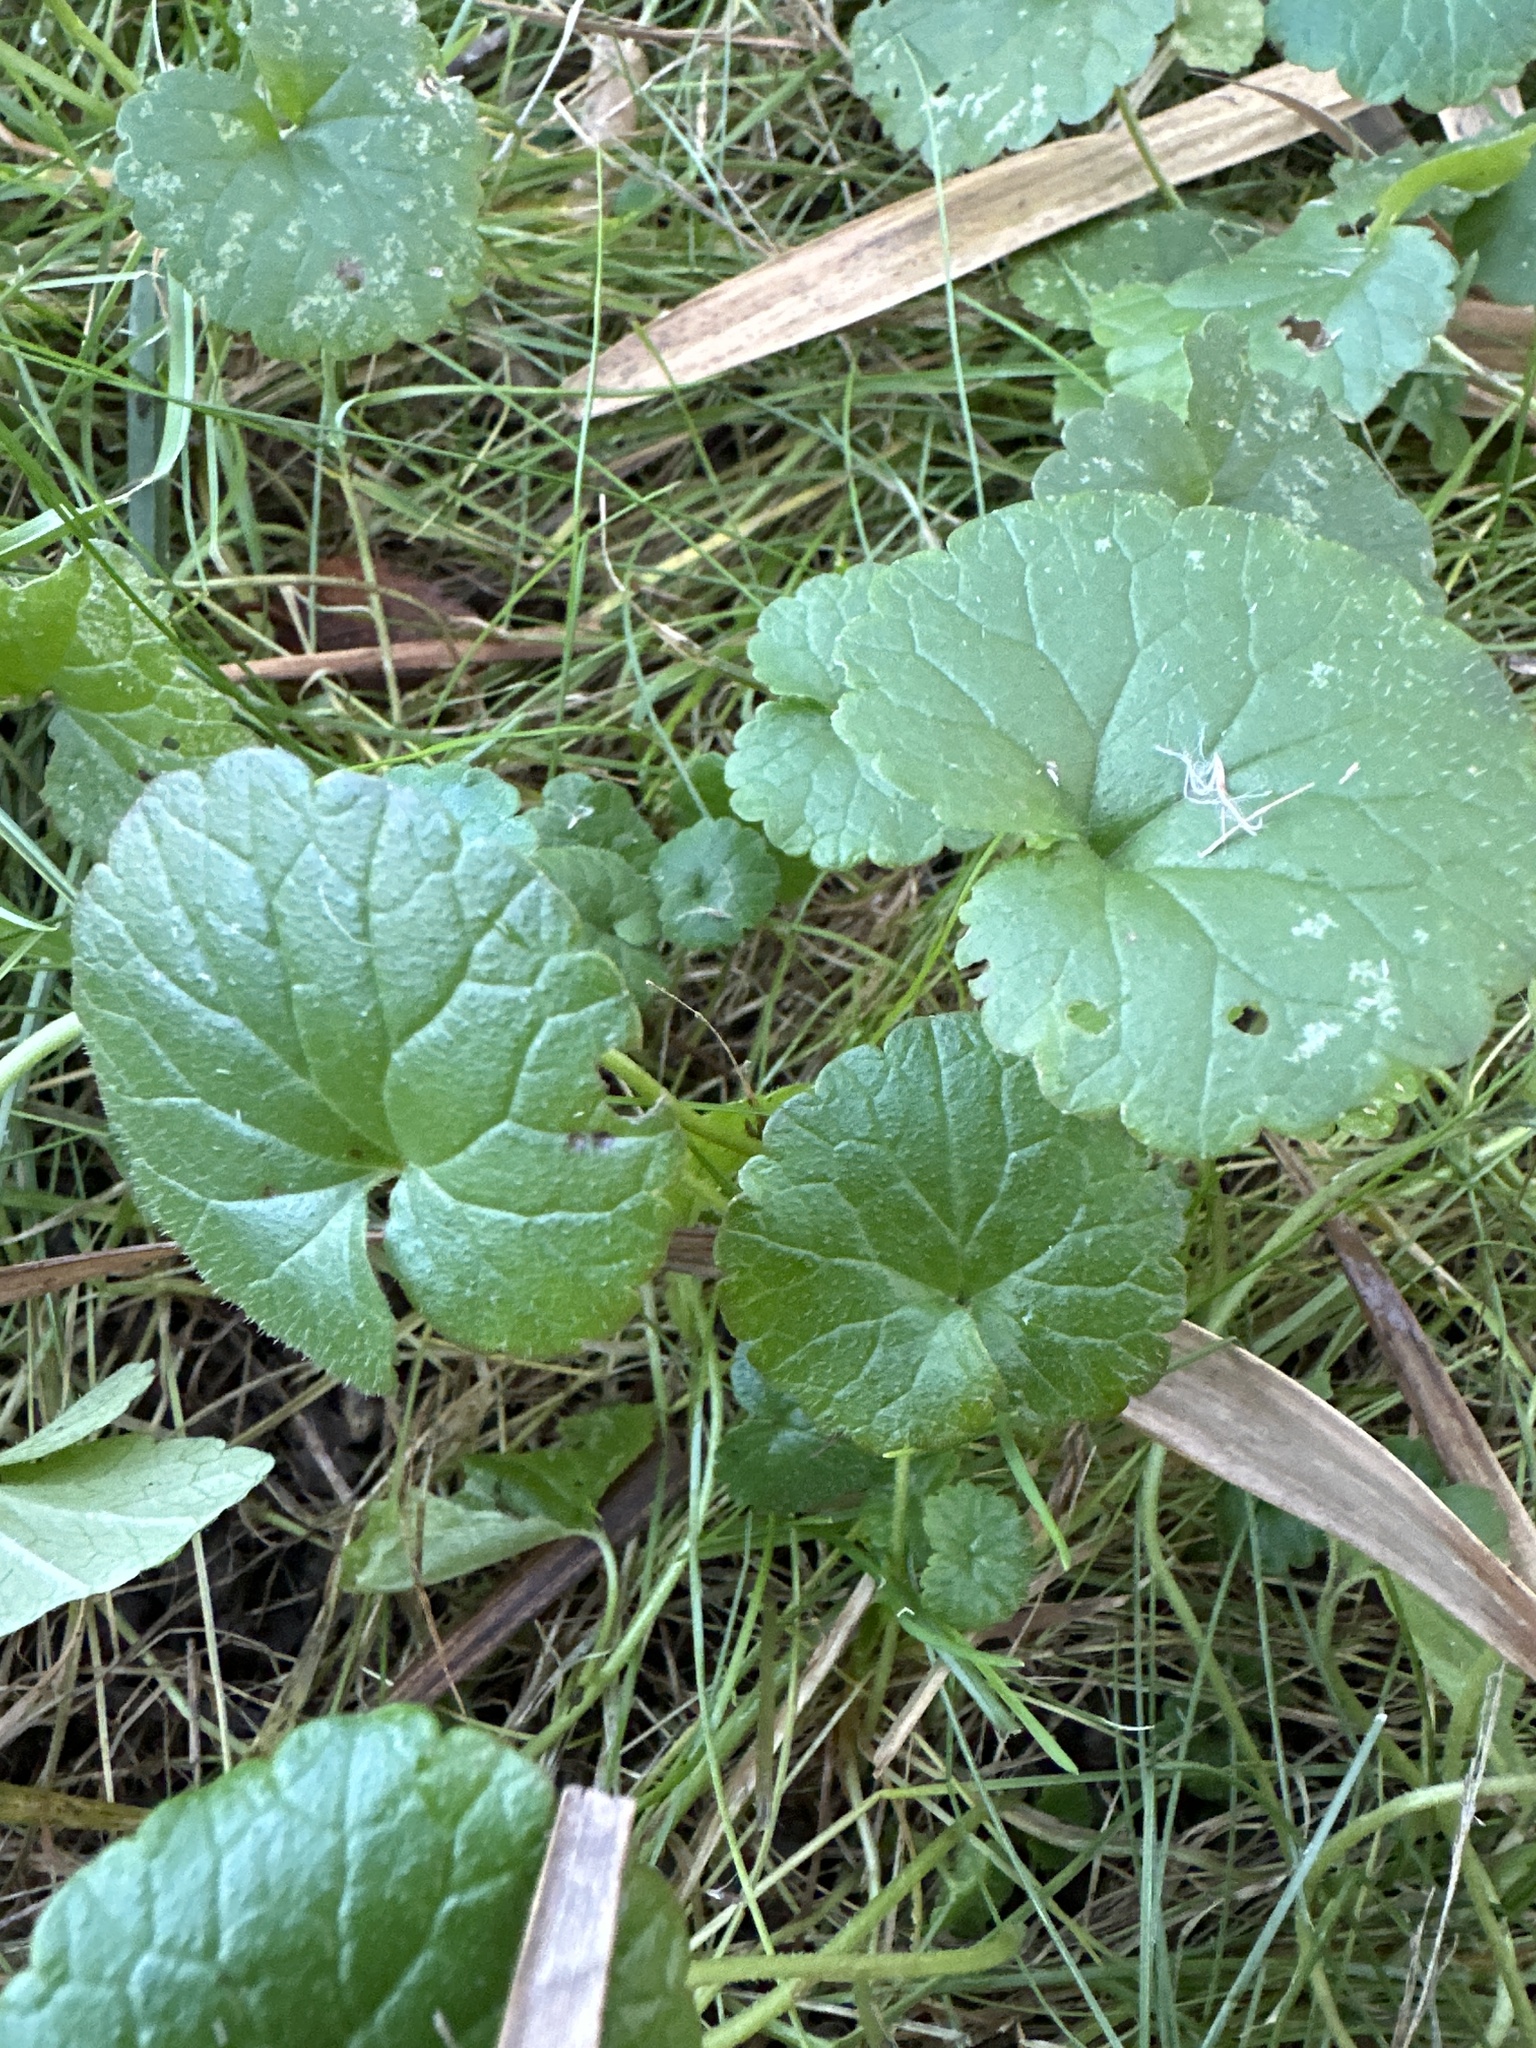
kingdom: Plantae
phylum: Tracheophyta
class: Magnoliopsida
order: Lamiales
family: Lamiaceae
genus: Glechoma
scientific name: Glechoma hederacea
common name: Ground ivy
